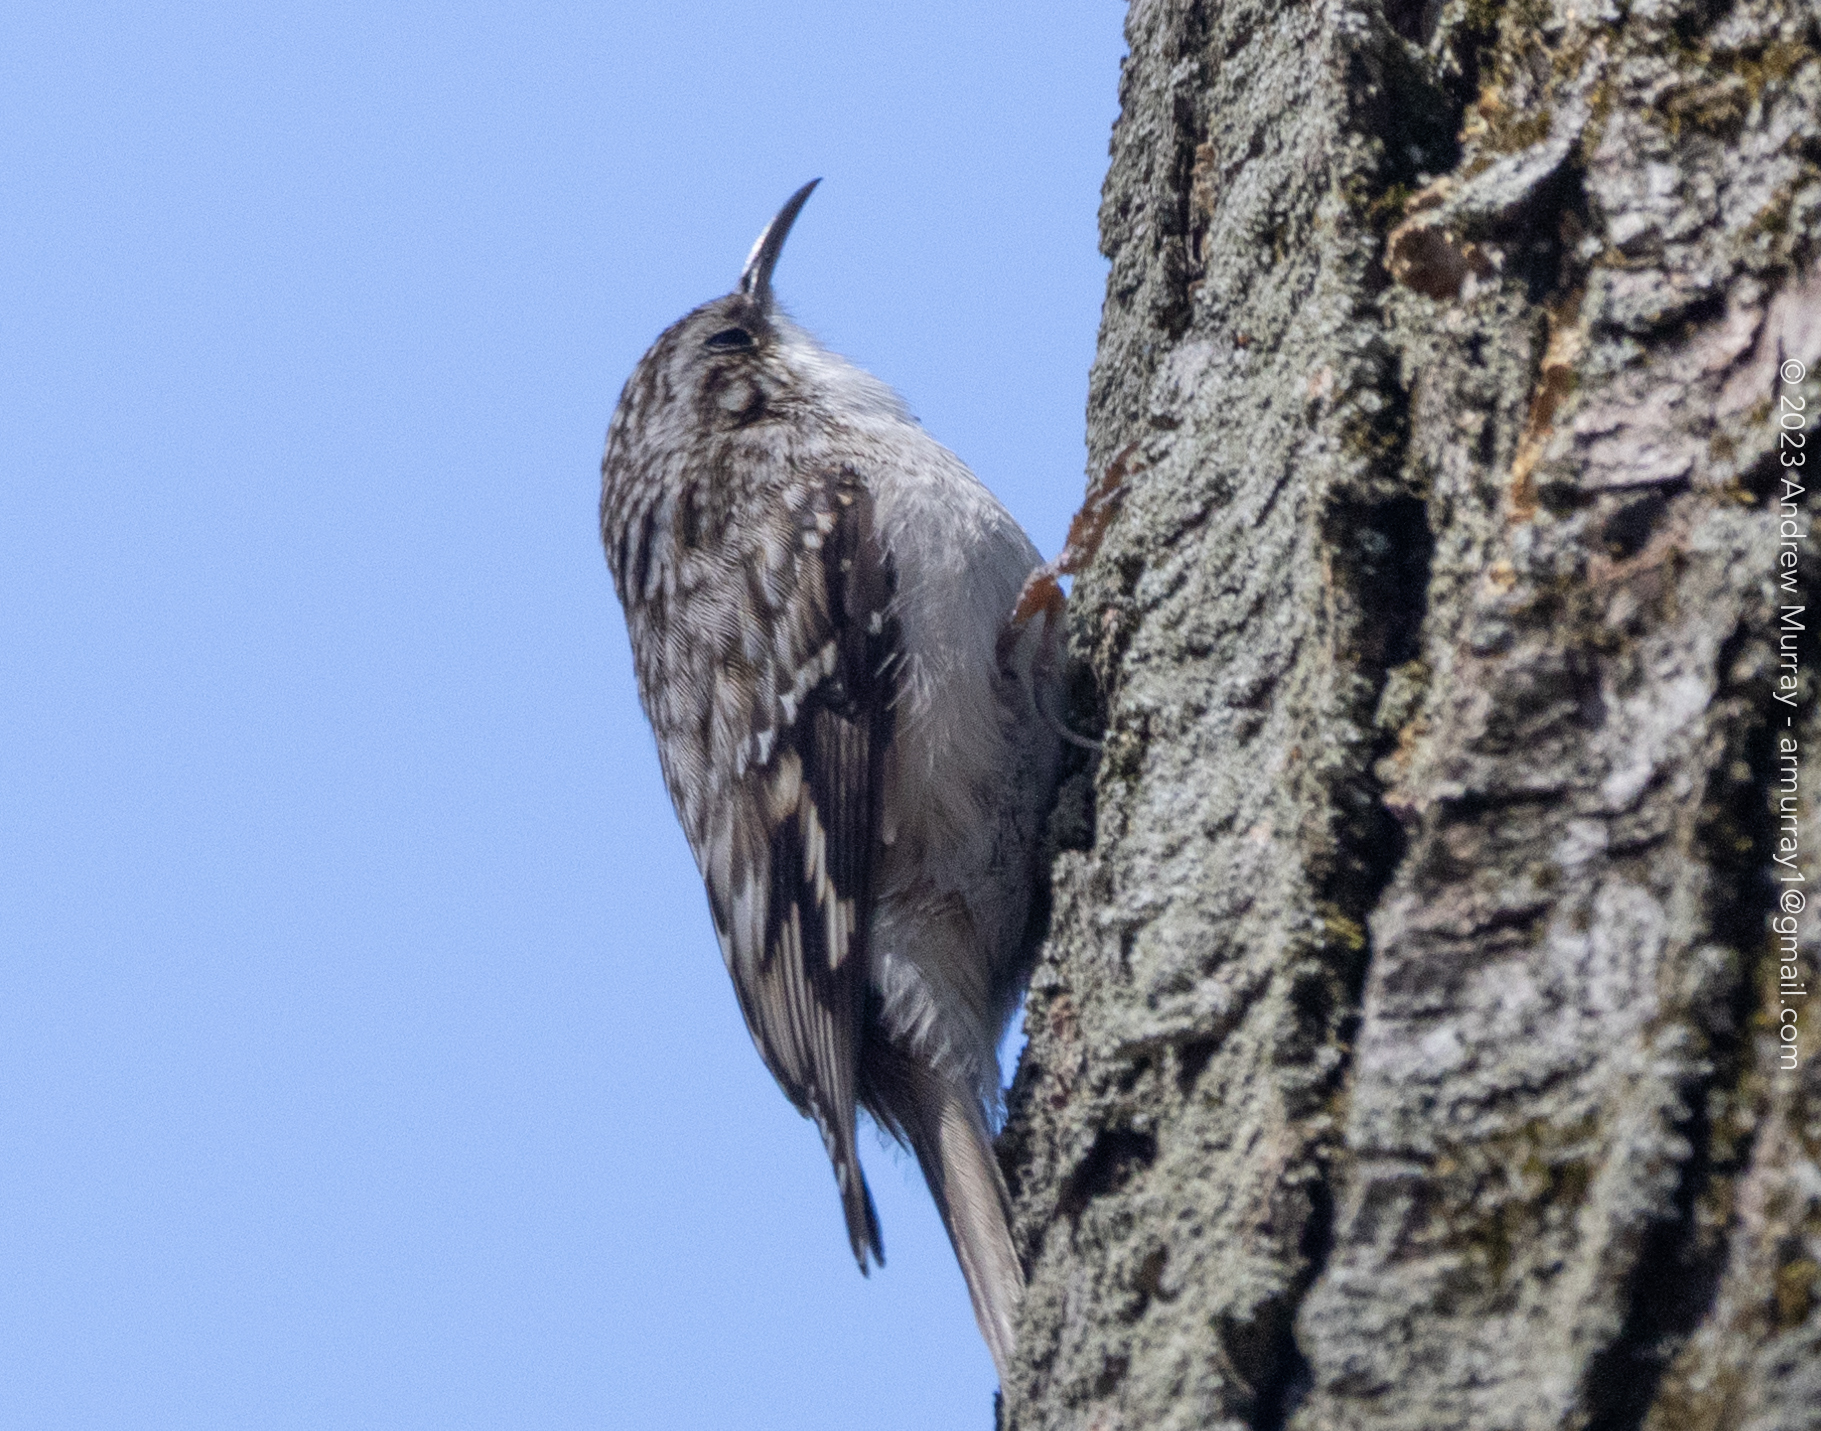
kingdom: Animalia
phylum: Chordata
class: Aves
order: Passeriformes
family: Certhiidae
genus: Certhia
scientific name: Certhia americana
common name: Brown creeper
